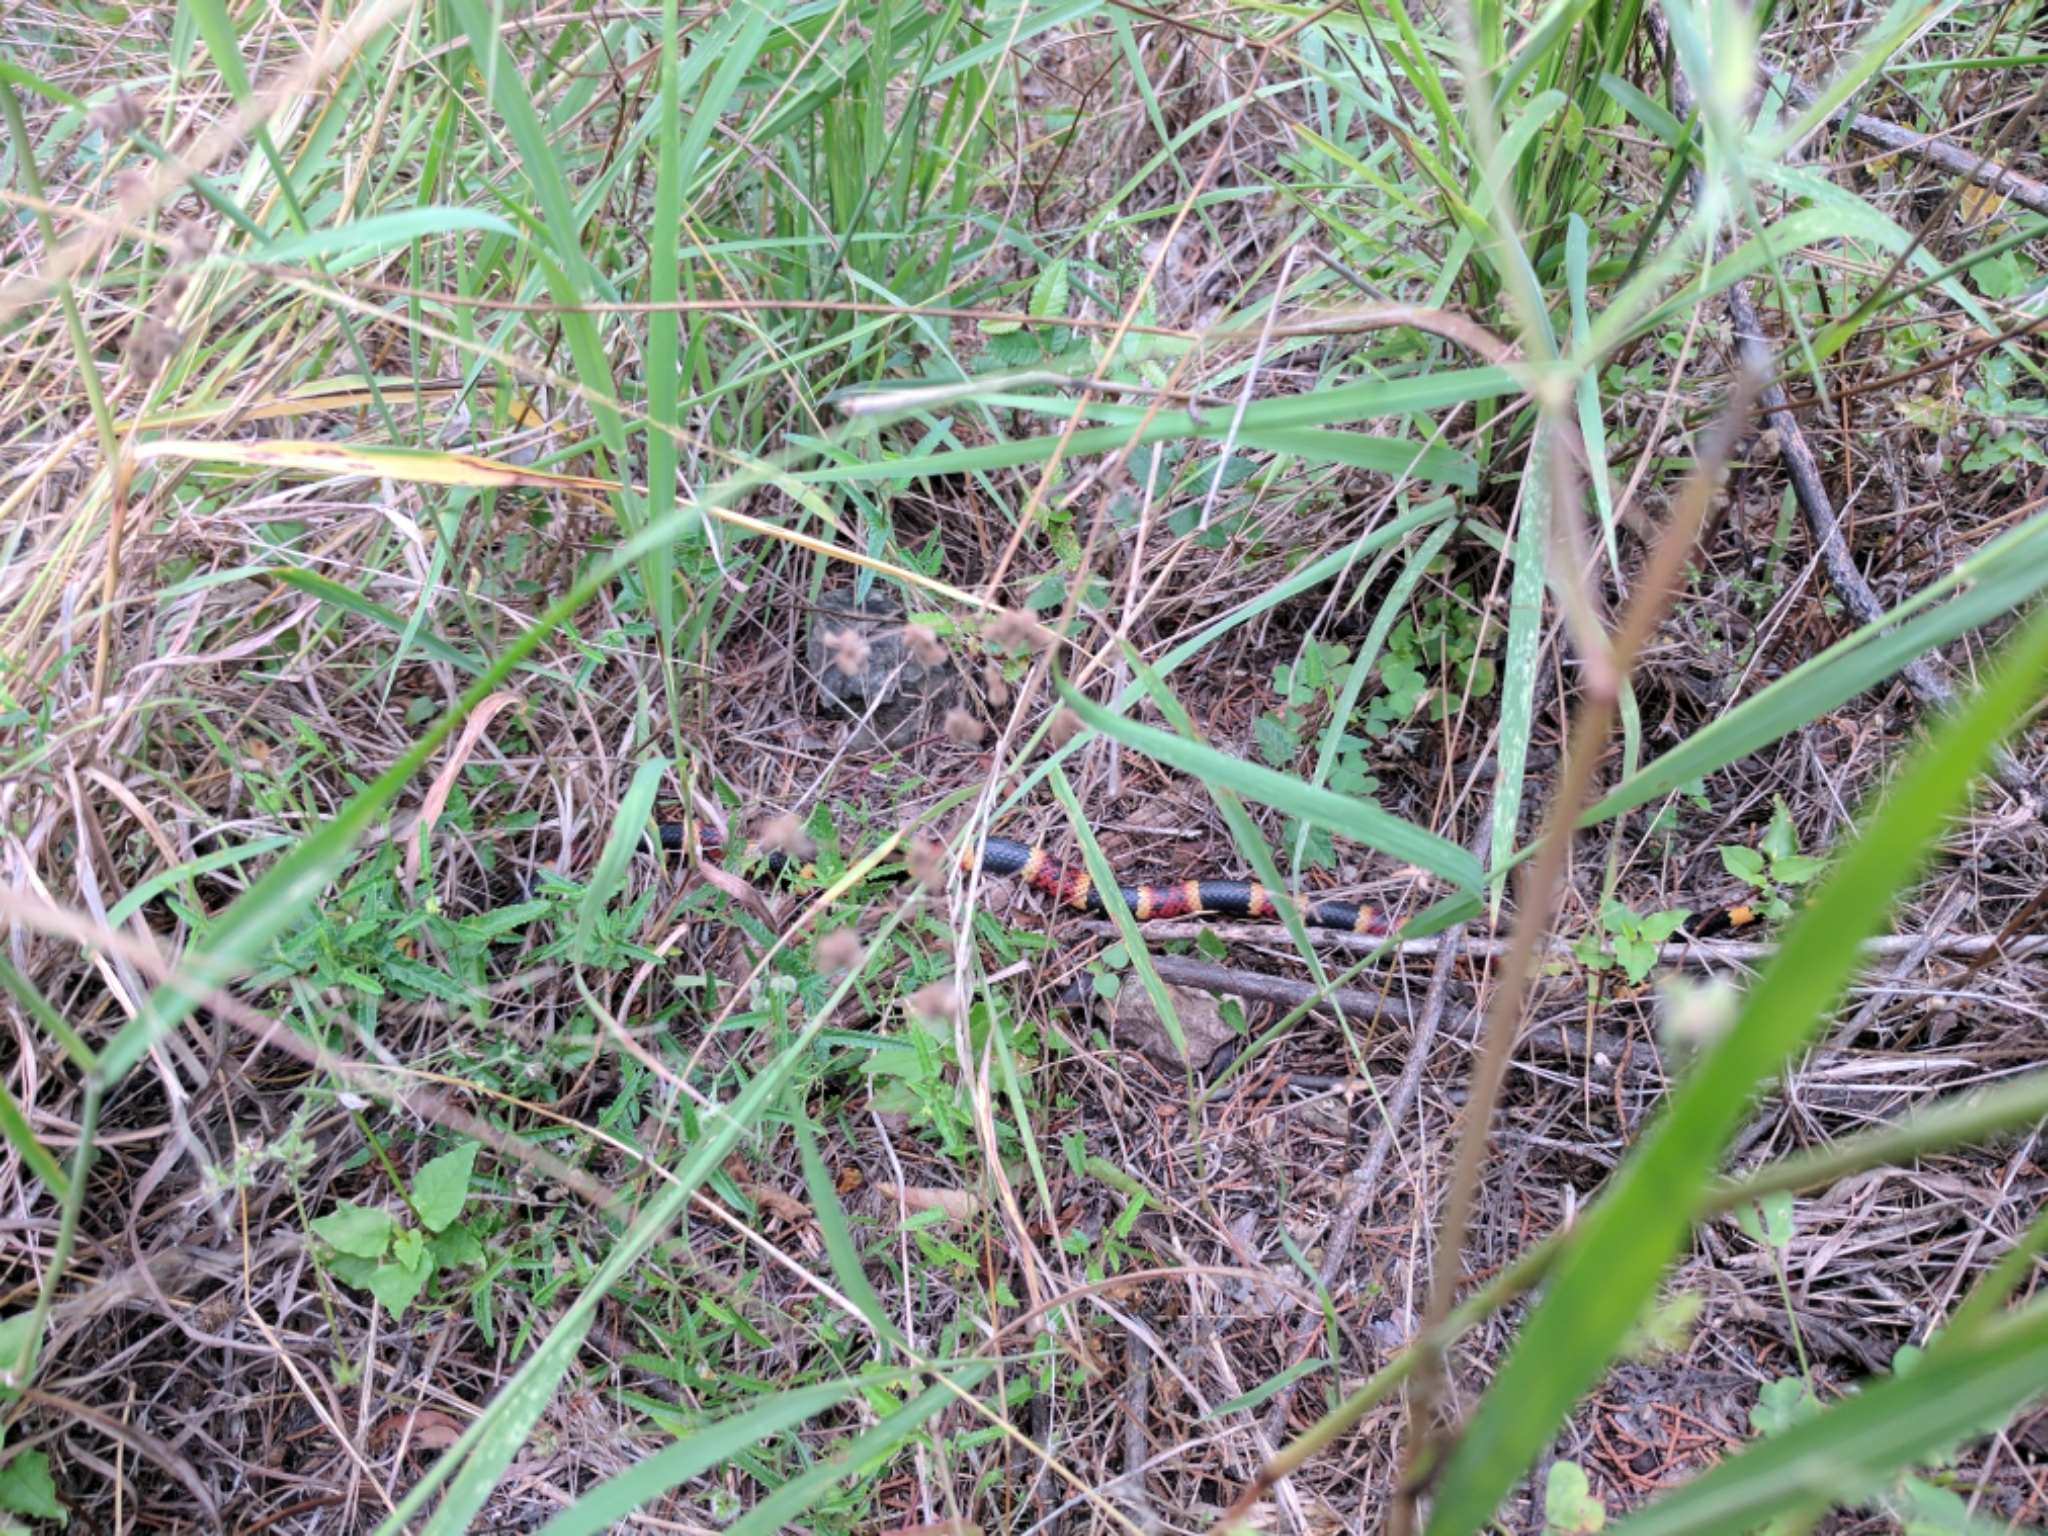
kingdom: Animalia
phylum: Chordata
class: Squamata
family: Elapidae
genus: Micrurus
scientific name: Micrurus tener
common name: Texas coral snake
